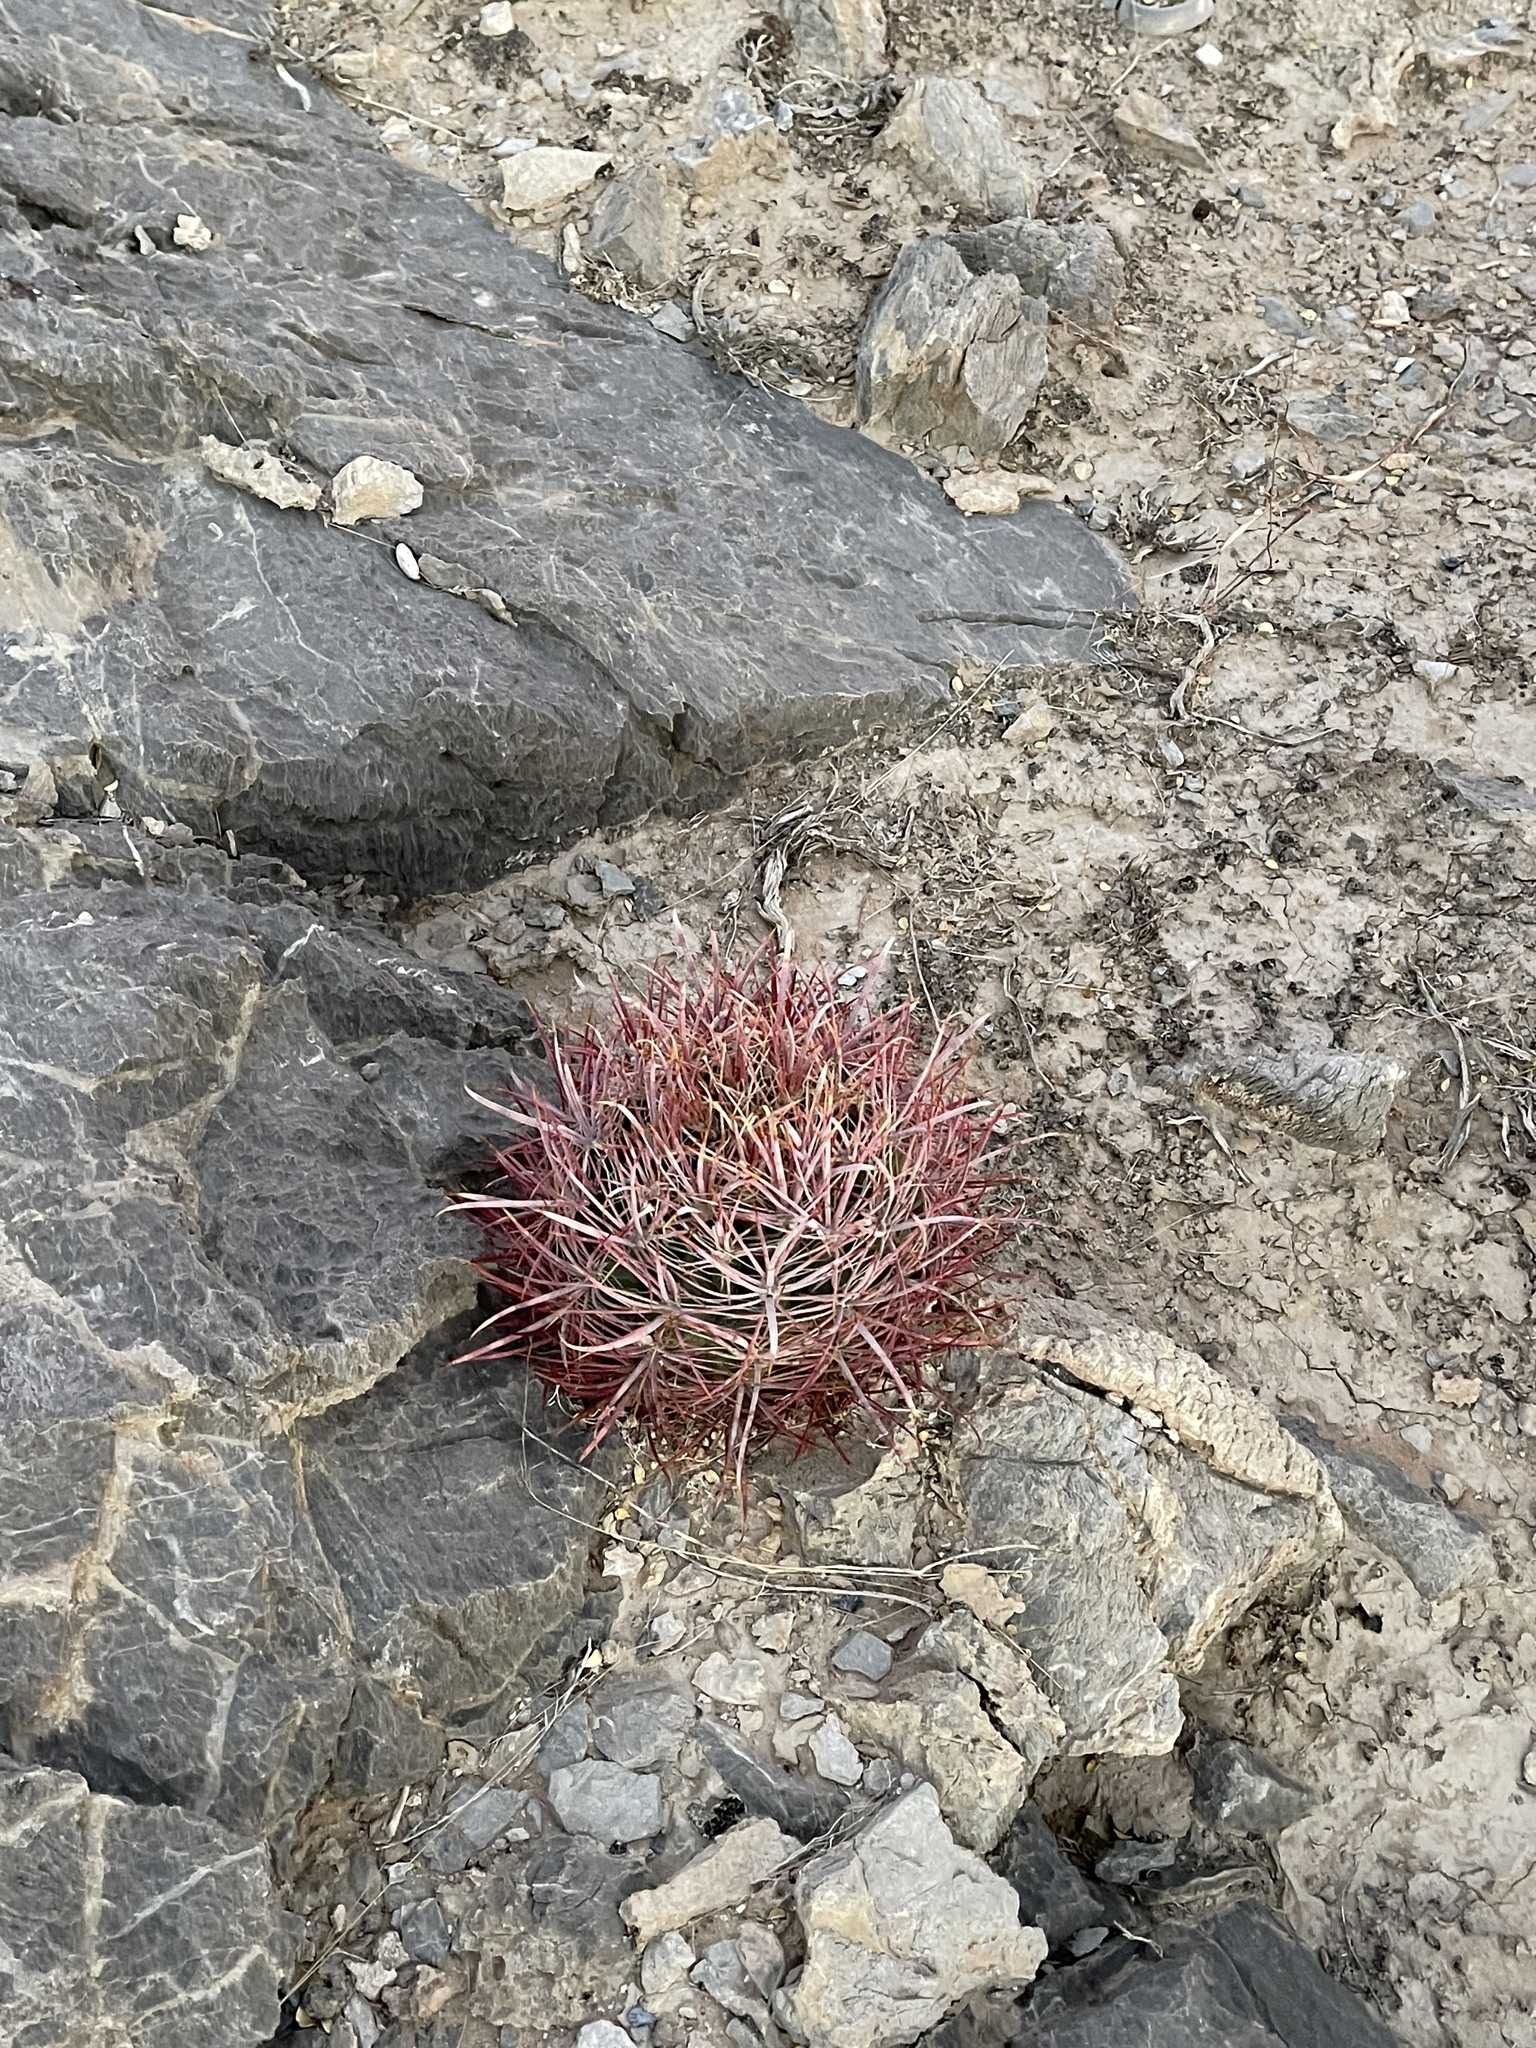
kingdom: Plantae
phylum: Tracheophyta
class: Magnoliopsida
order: Caryophyllales
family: Cactaceae
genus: Ferocactus
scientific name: Ferocactus cylindraceus
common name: California barrel cactus
